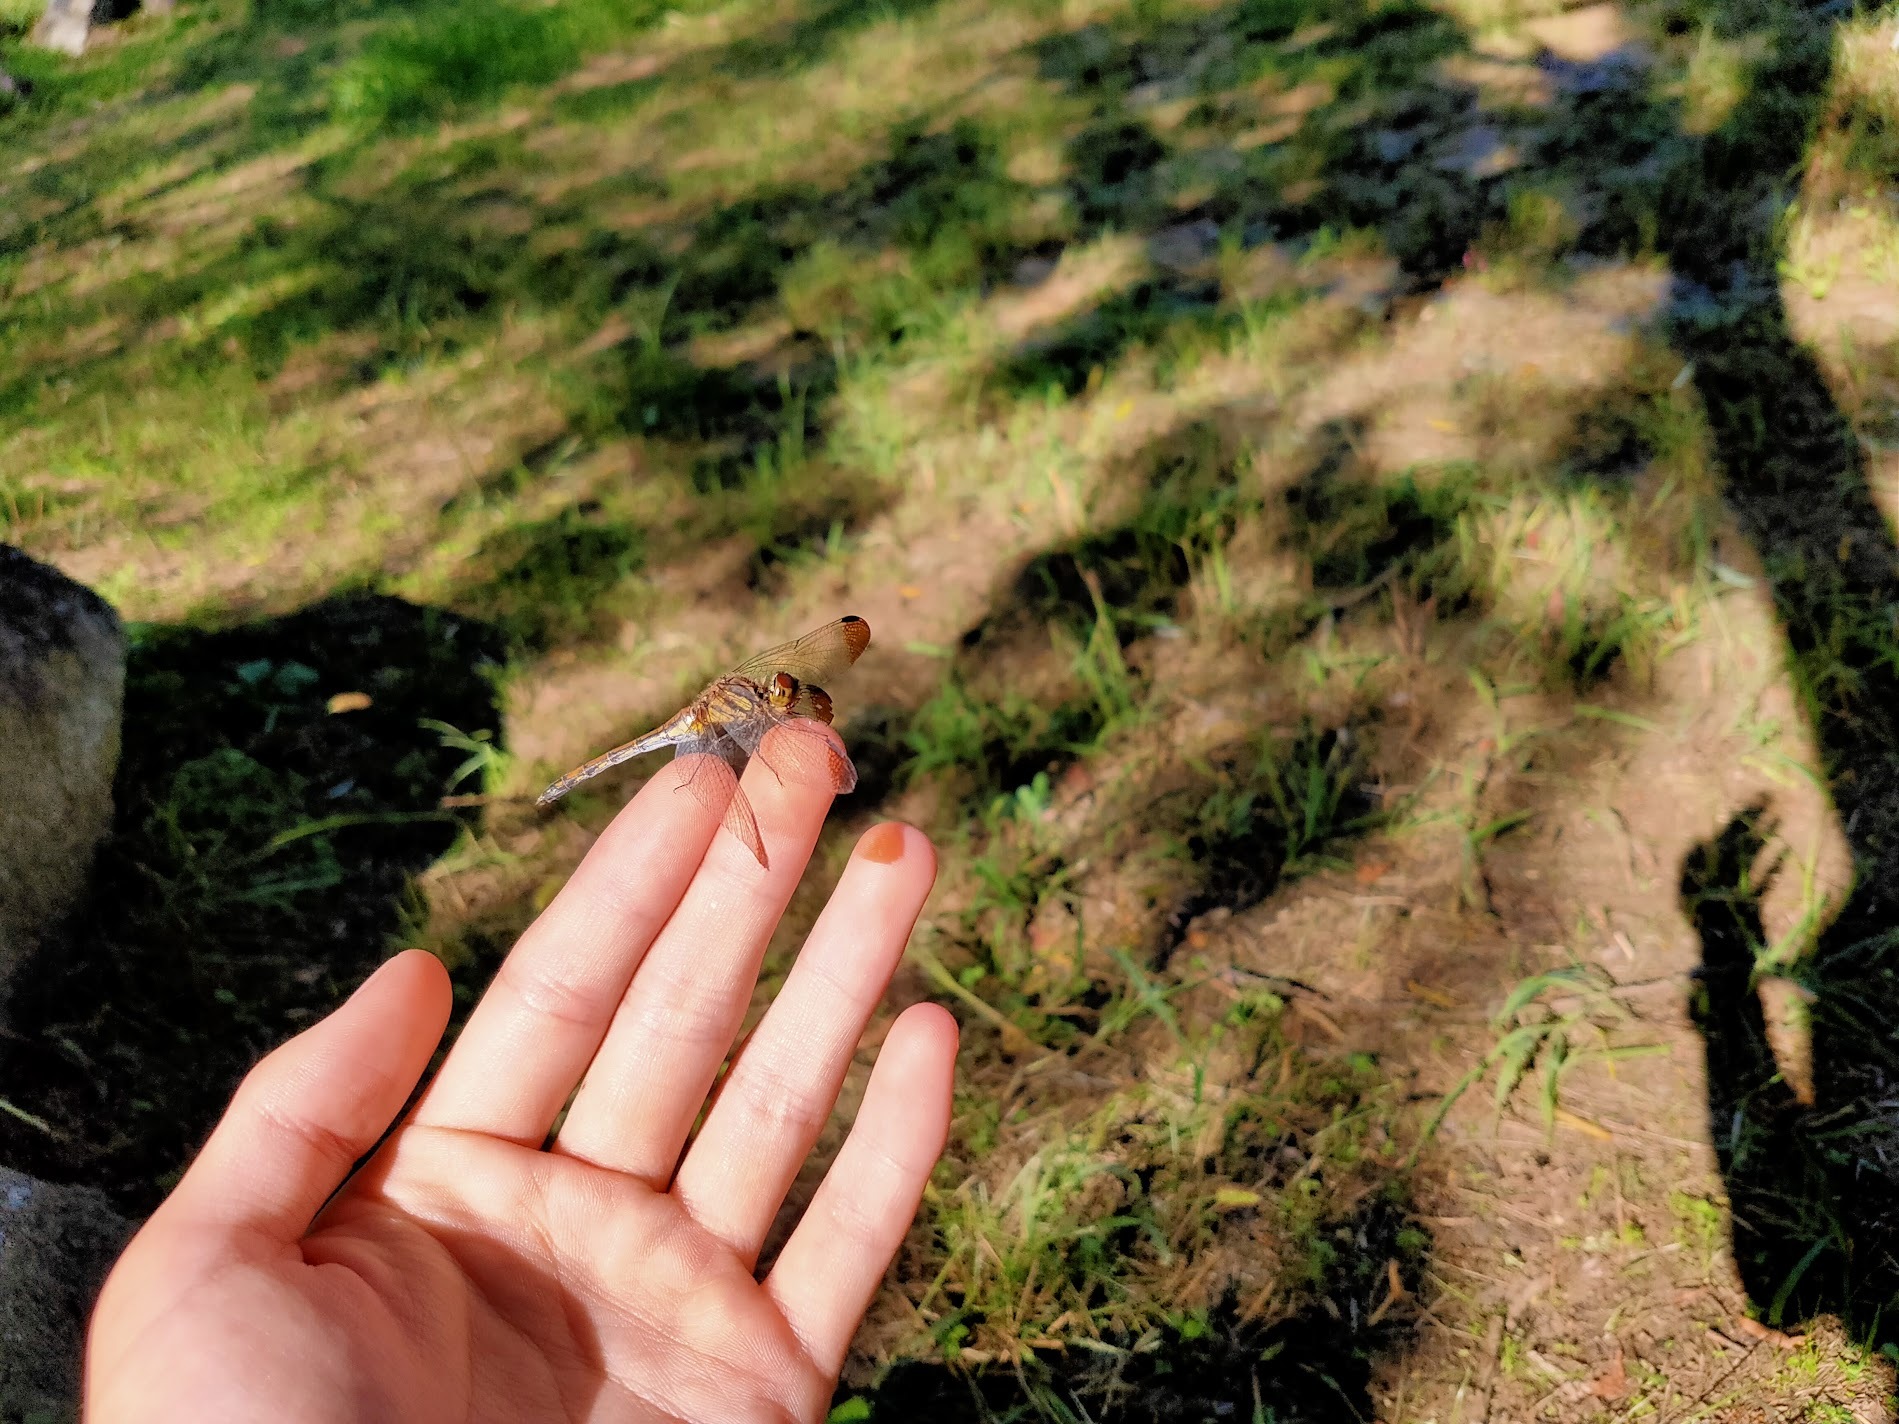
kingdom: Animalia
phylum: Arthropoda
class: Insecta
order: Odonata
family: Libellulidae
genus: Sympetrum
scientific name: Sympetrum infuscatum
